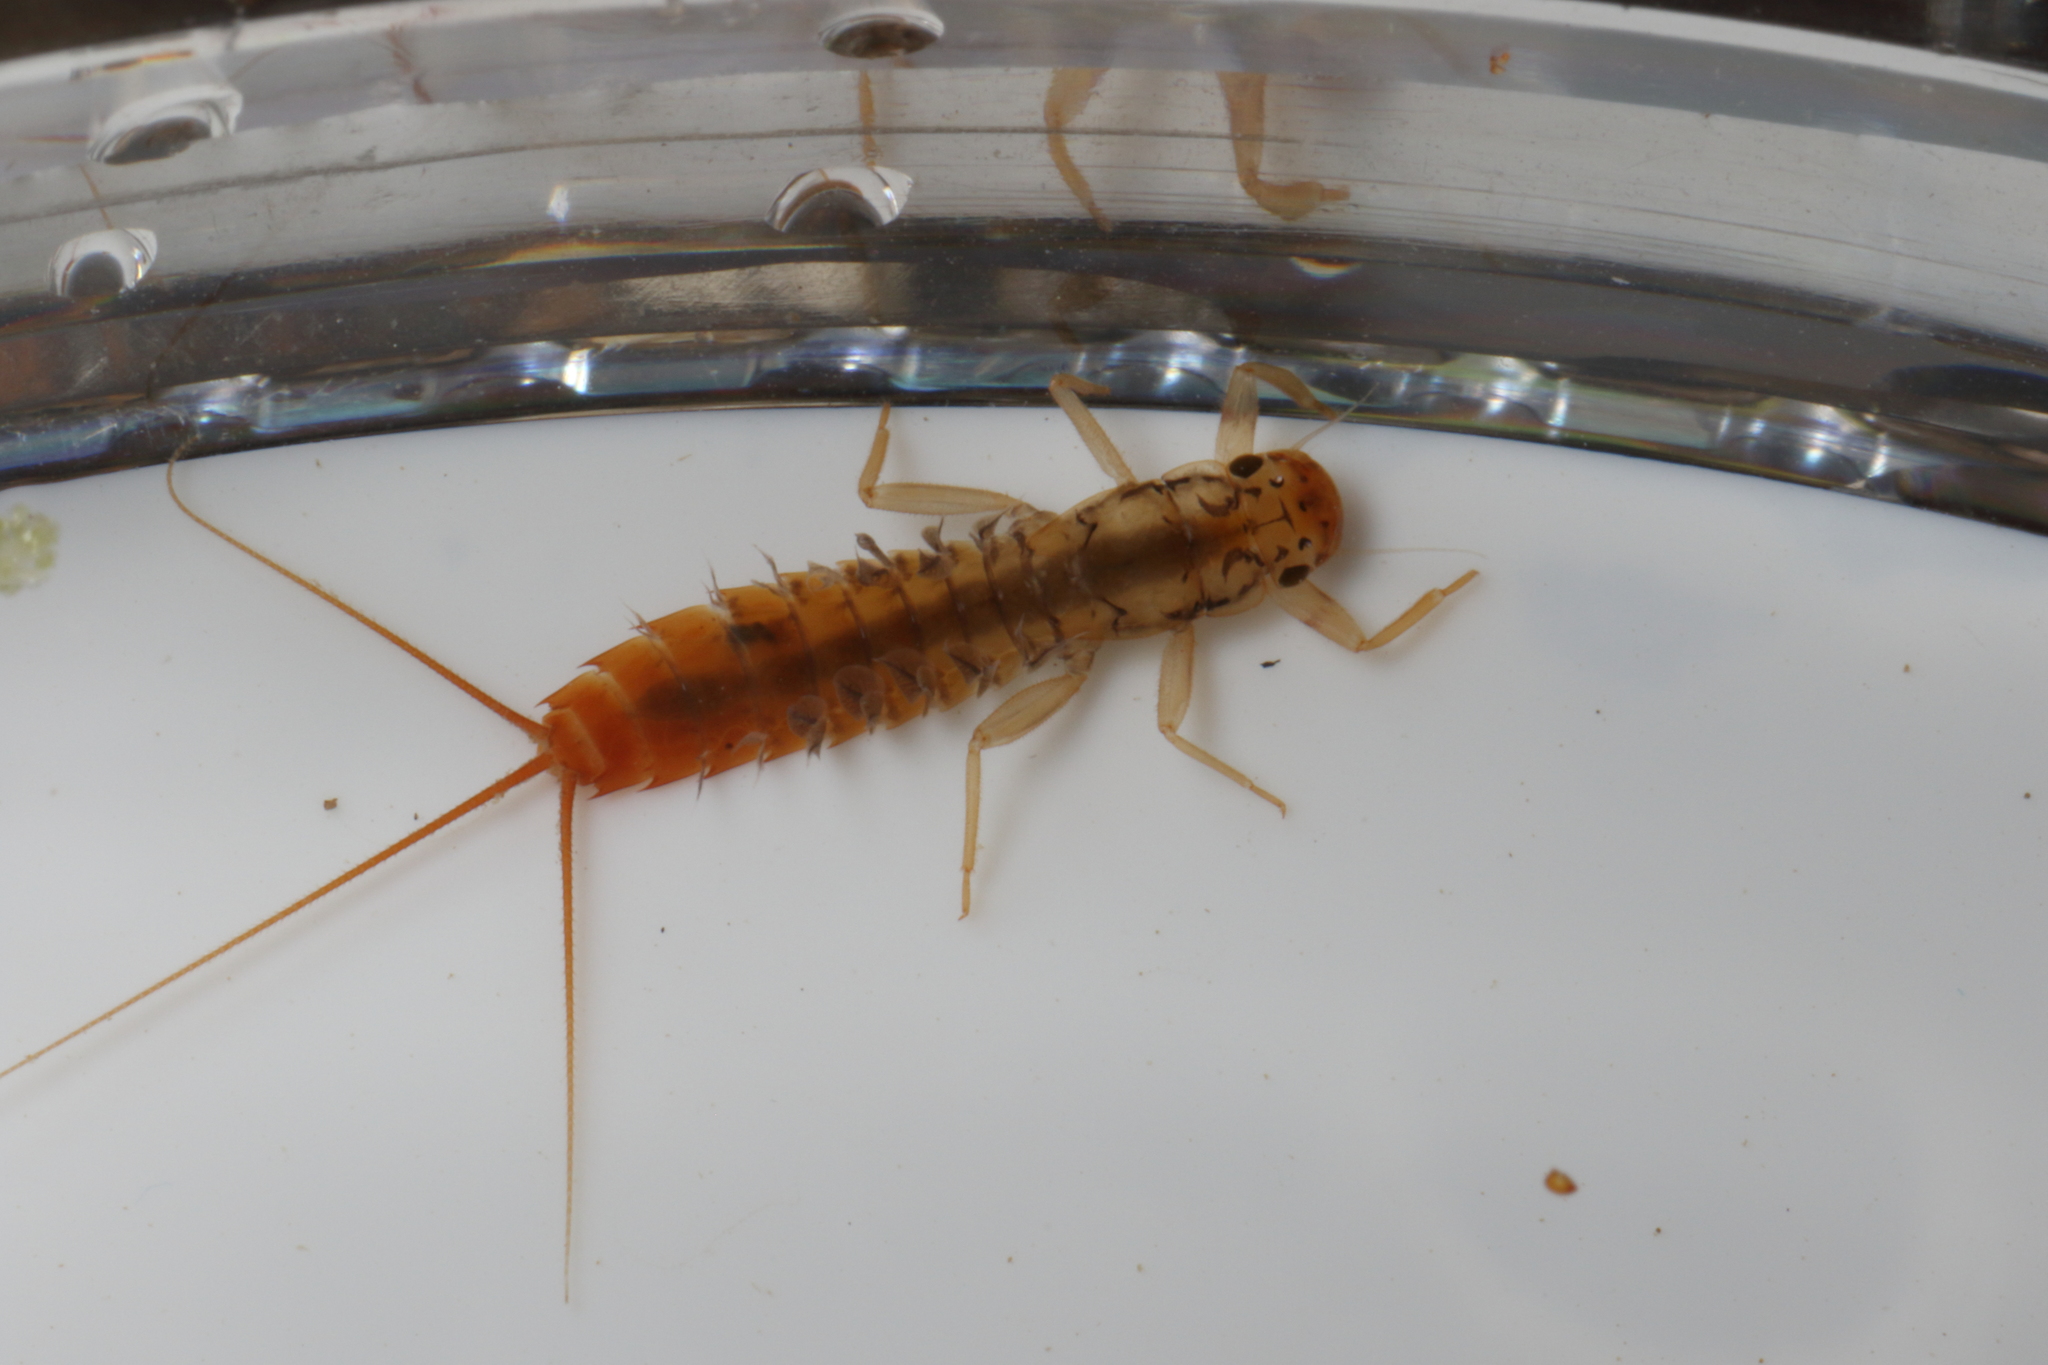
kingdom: Animalia
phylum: Arthropoda
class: Insecta
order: Ephemeroptera
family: Leptophlebiidae
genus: Acanthophlebia
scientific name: Acanthophlebia cruentata
